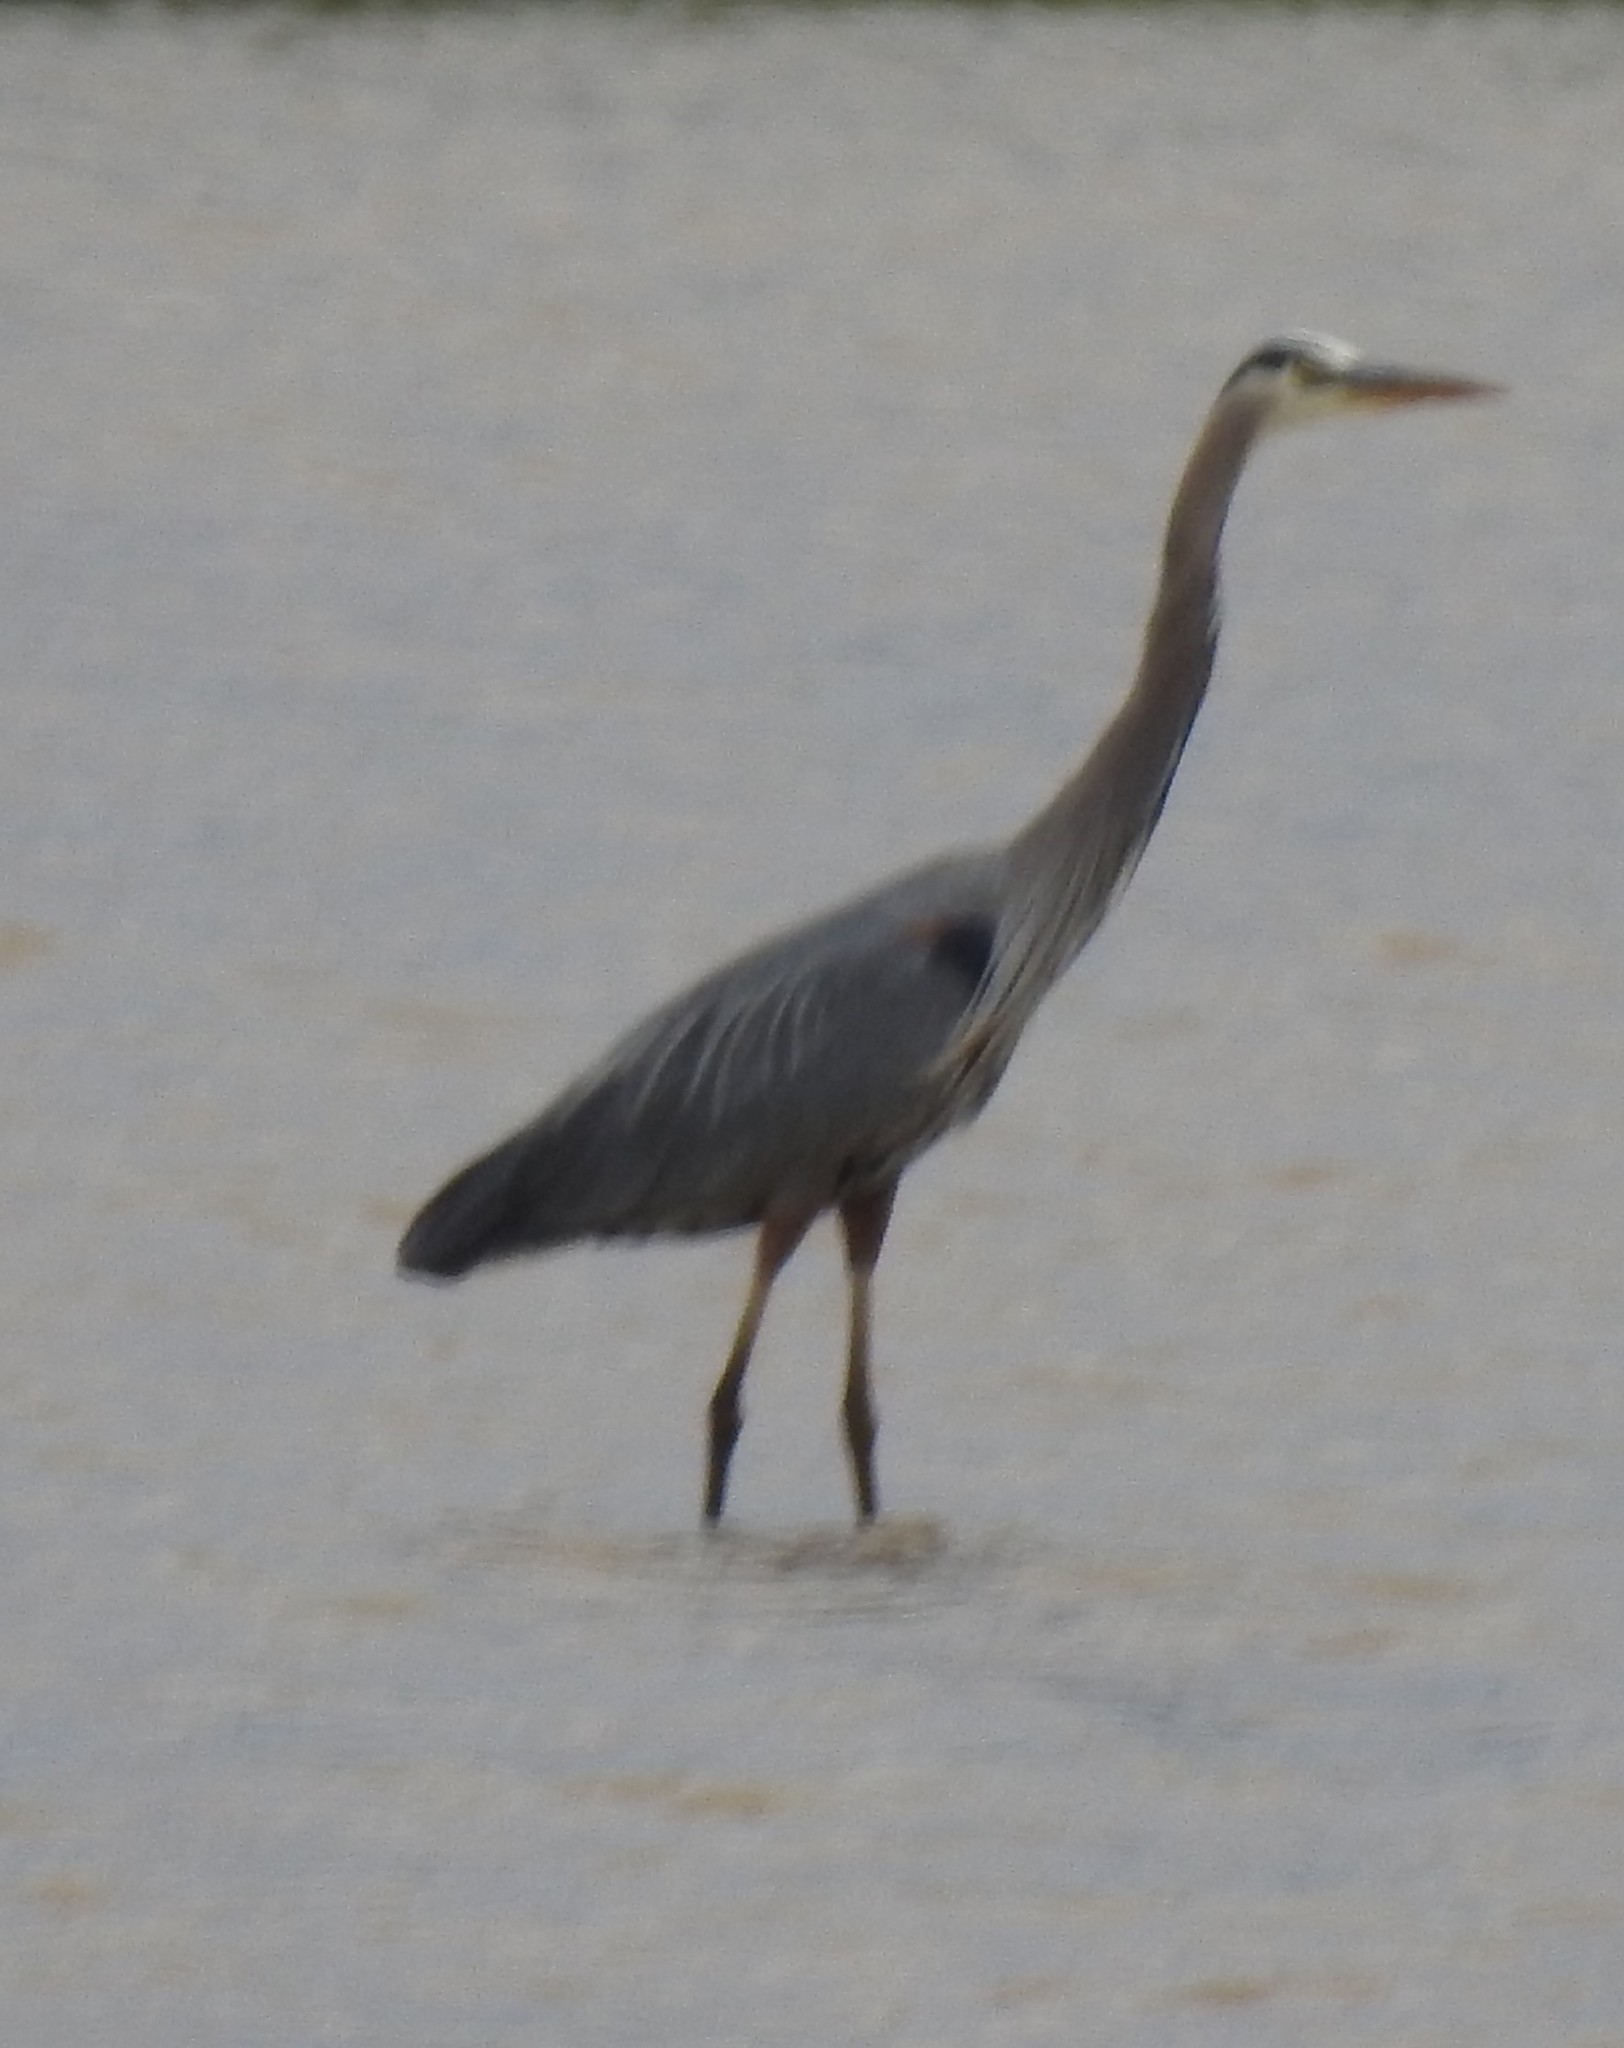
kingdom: Animalia
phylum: Chordata
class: Aves
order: Pelecaniformes
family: Ardeidae
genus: Ardea
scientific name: Ardea herodias
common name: Great blue heron
